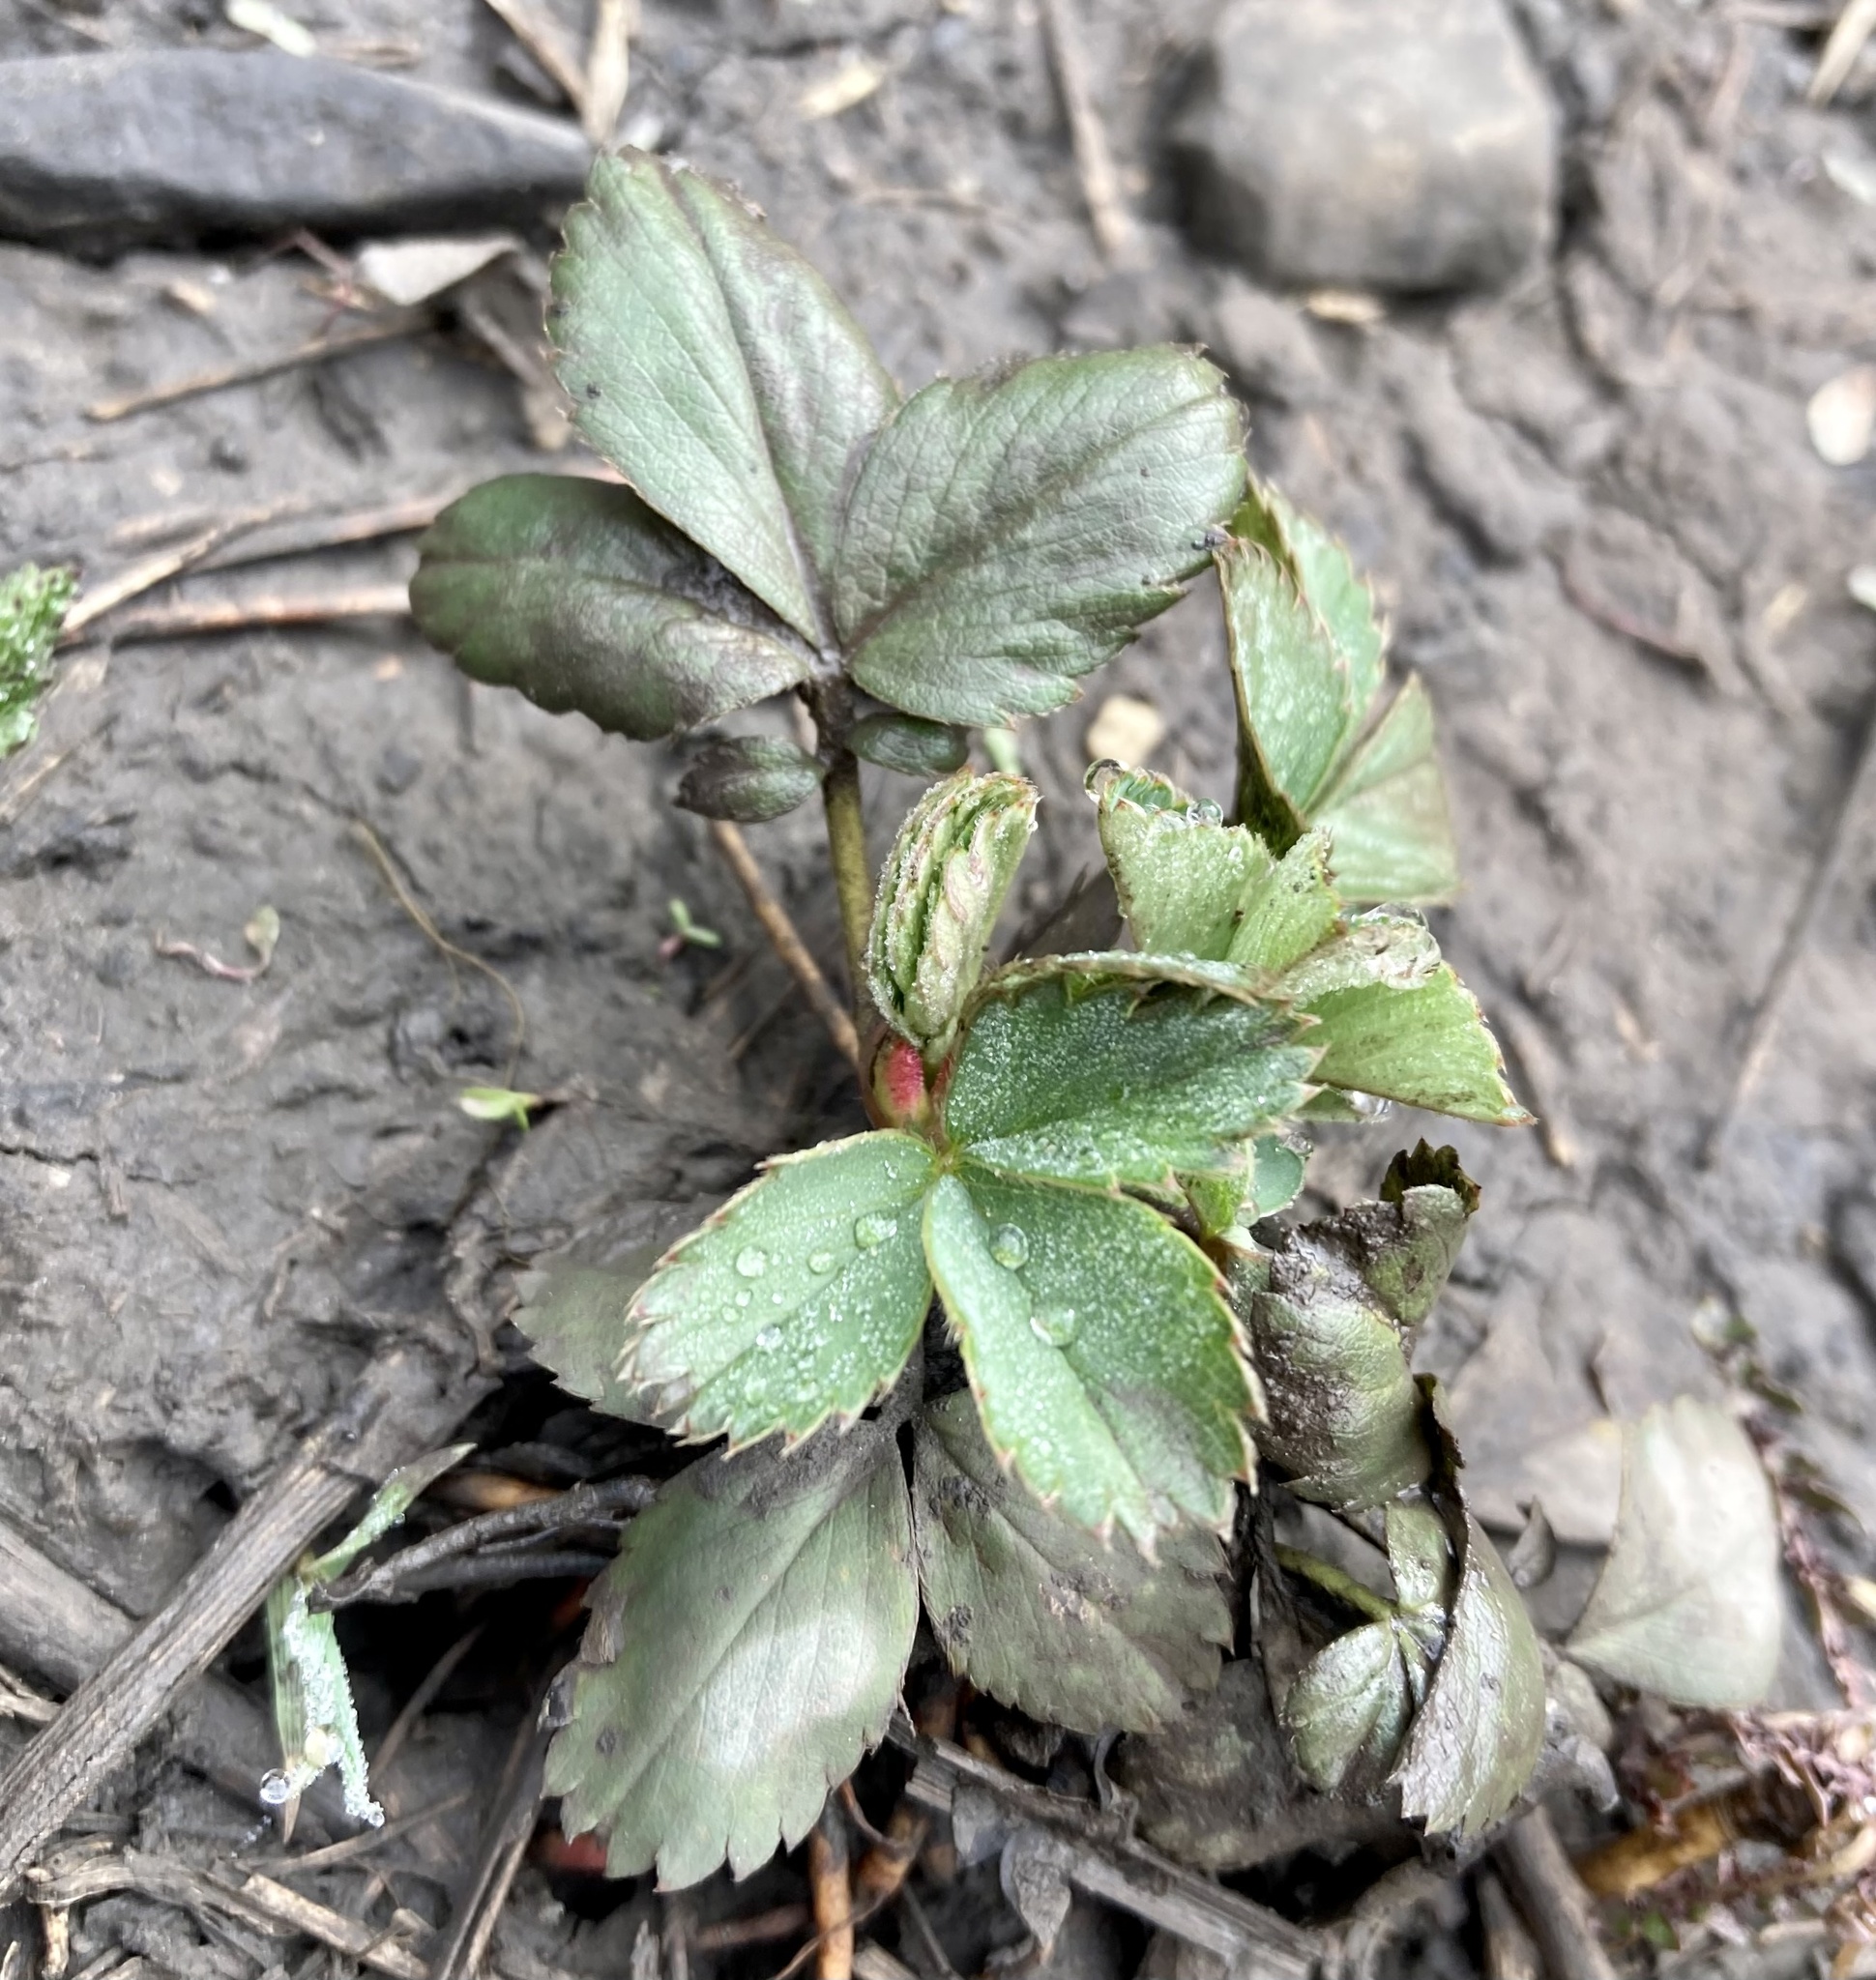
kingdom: Plantae
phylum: Tracheophyta
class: Magnoliopsida
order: Rosales
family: Rosaceae
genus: Fragaria
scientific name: Fragaria virginiana
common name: Thickleaved wild strawberry
